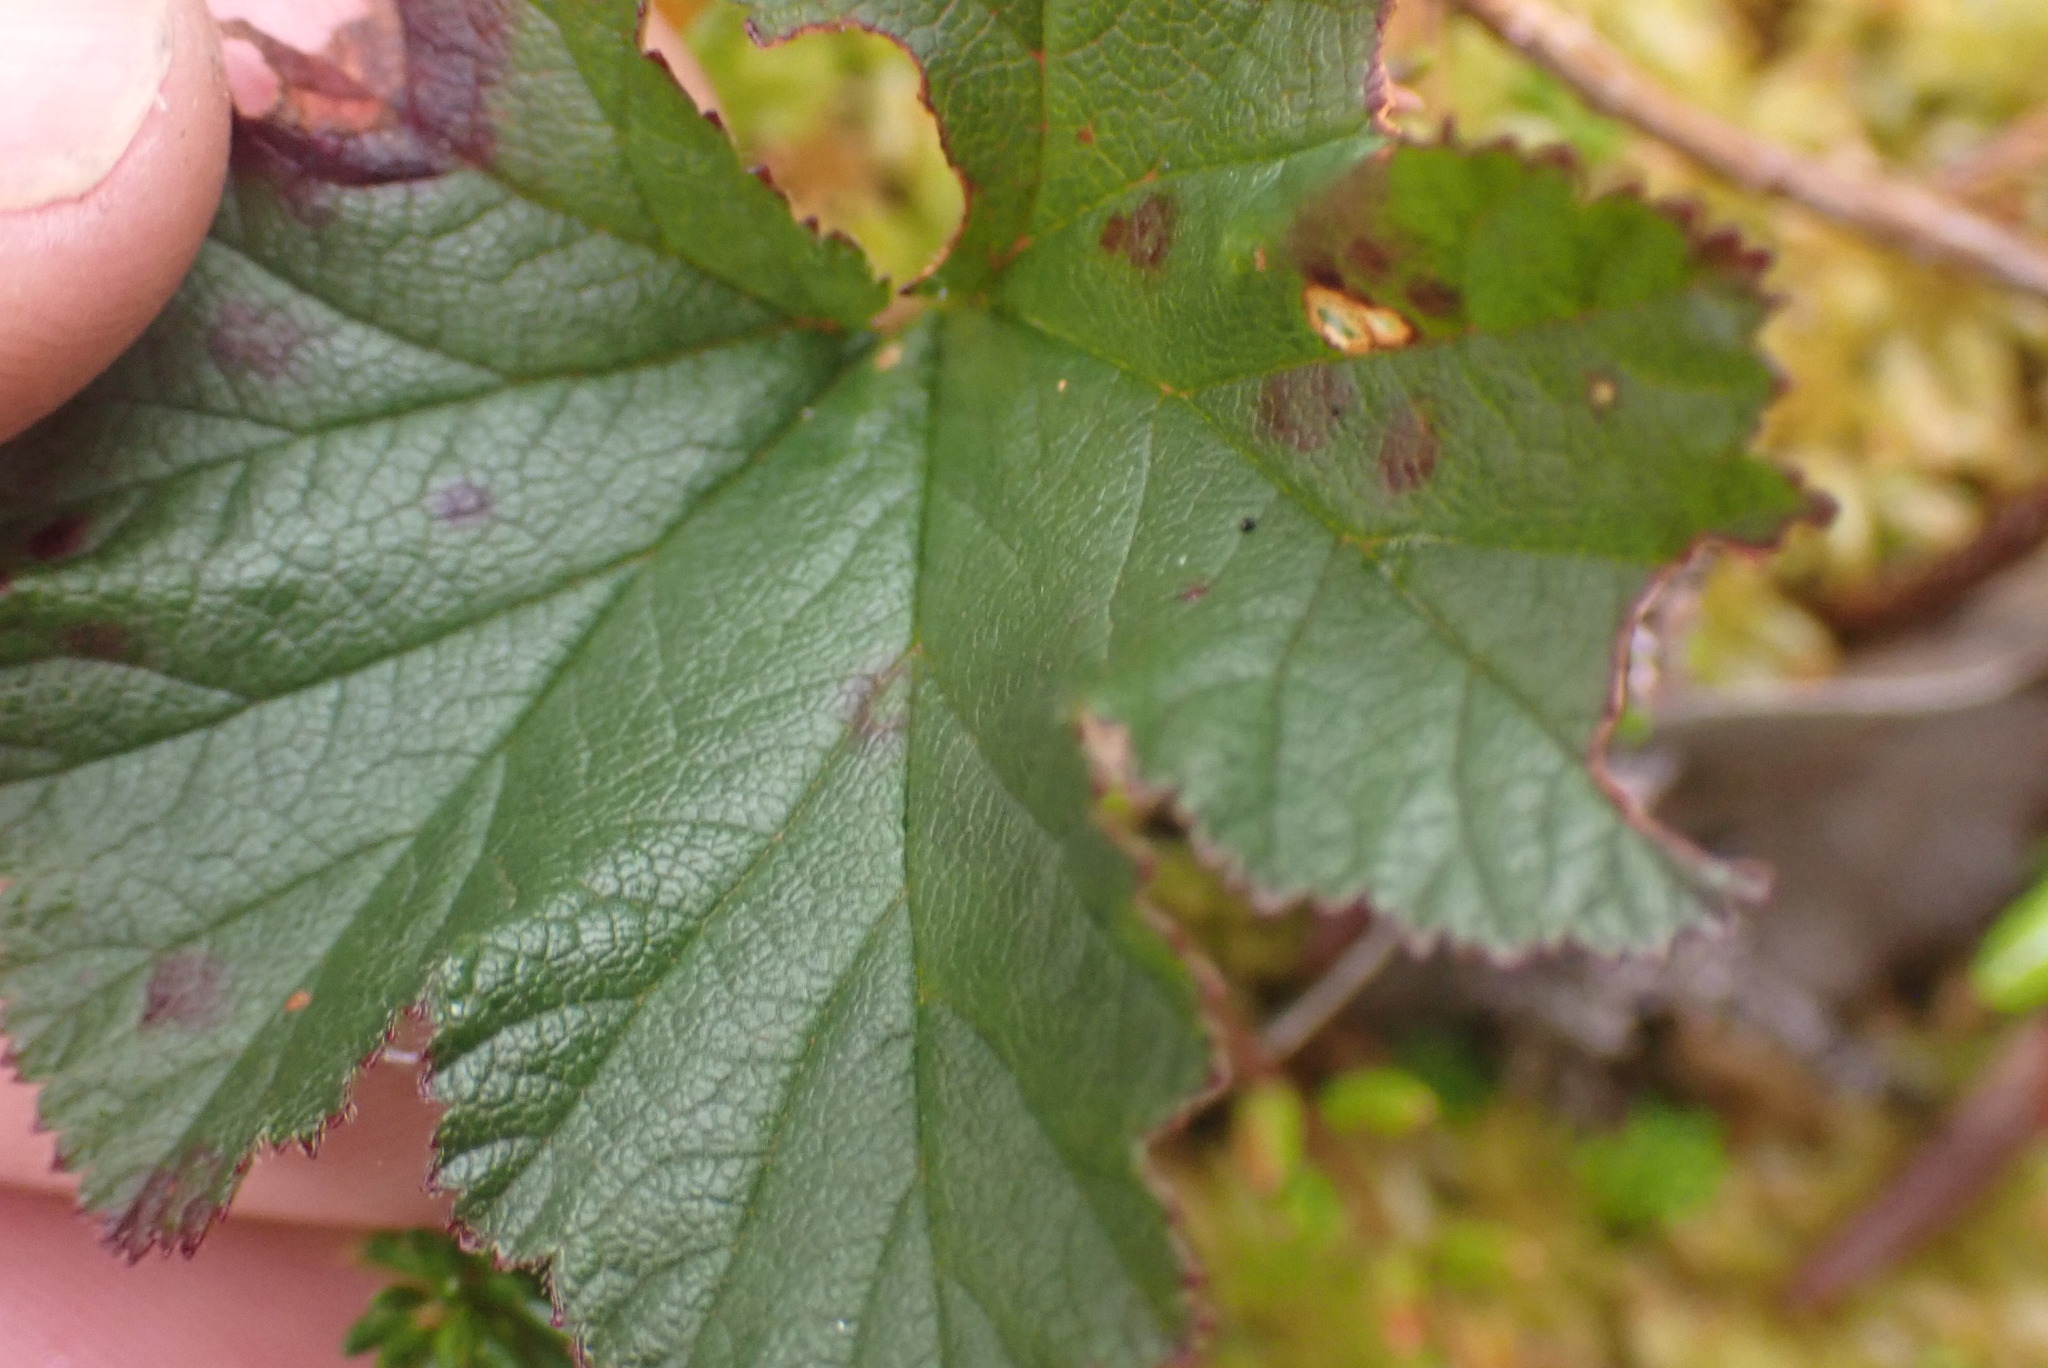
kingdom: Plantae
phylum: Tracheophyta
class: Magnoliopsida
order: Rosales
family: Rosaceae
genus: Rubus
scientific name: Rubus chamaemorus
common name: Cloudberry
